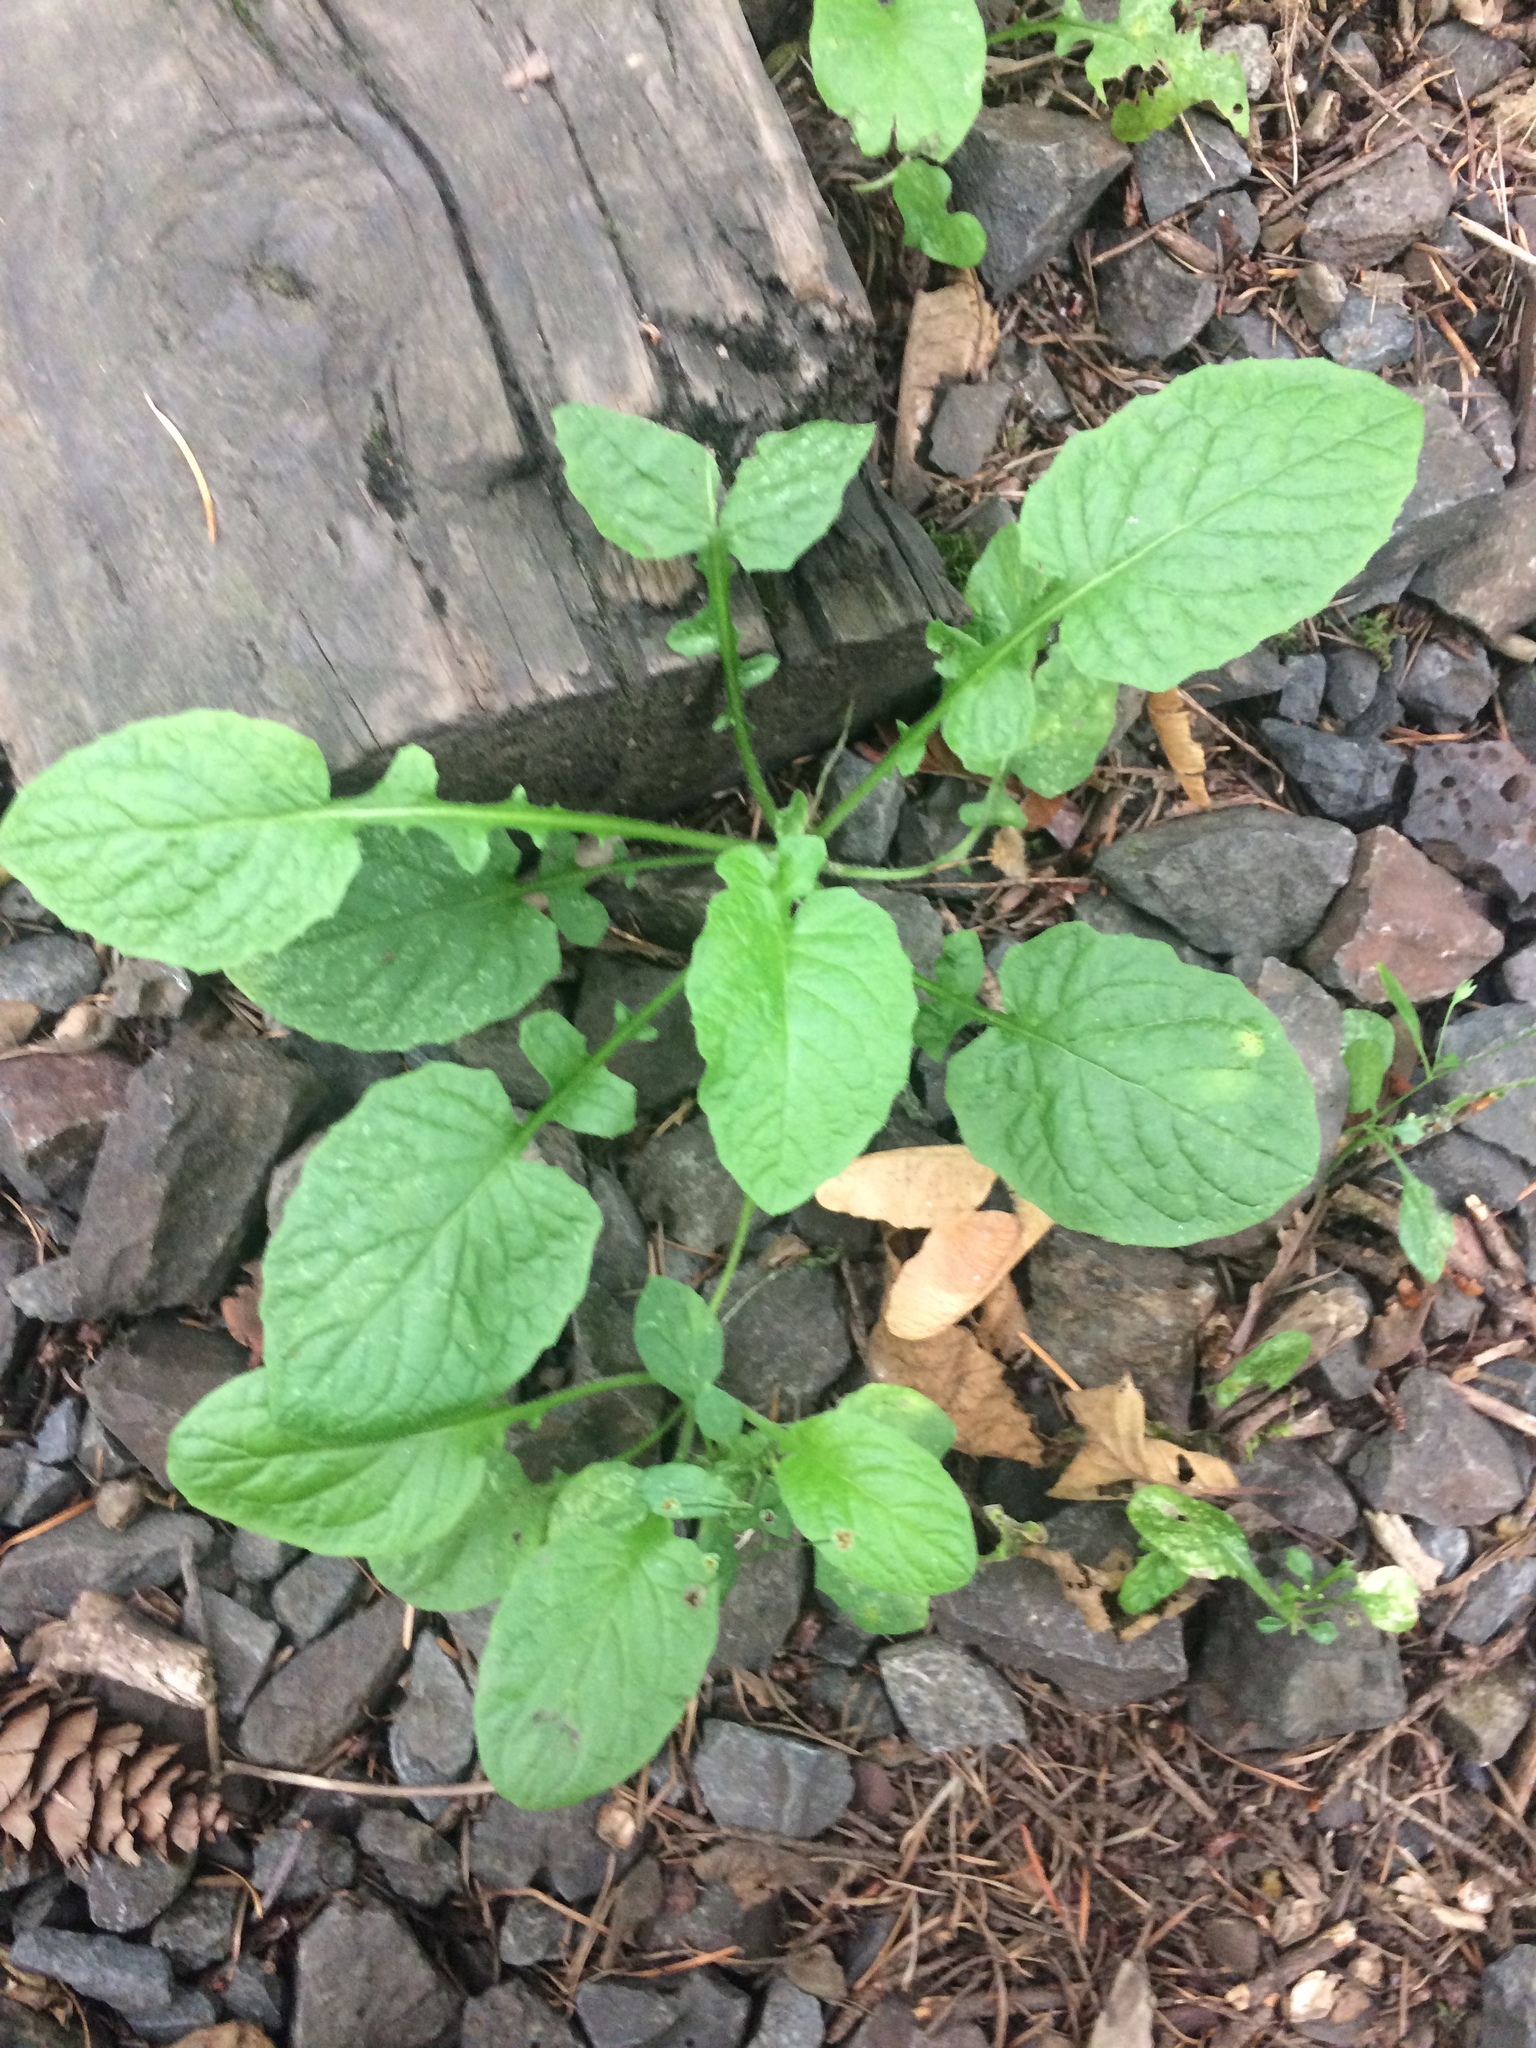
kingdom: Plantae
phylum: Tracheophyta
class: Magnoliopsida
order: Asterales
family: Asteraceae
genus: Lapsana
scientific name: Lapsana communis
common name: Nipplewort
